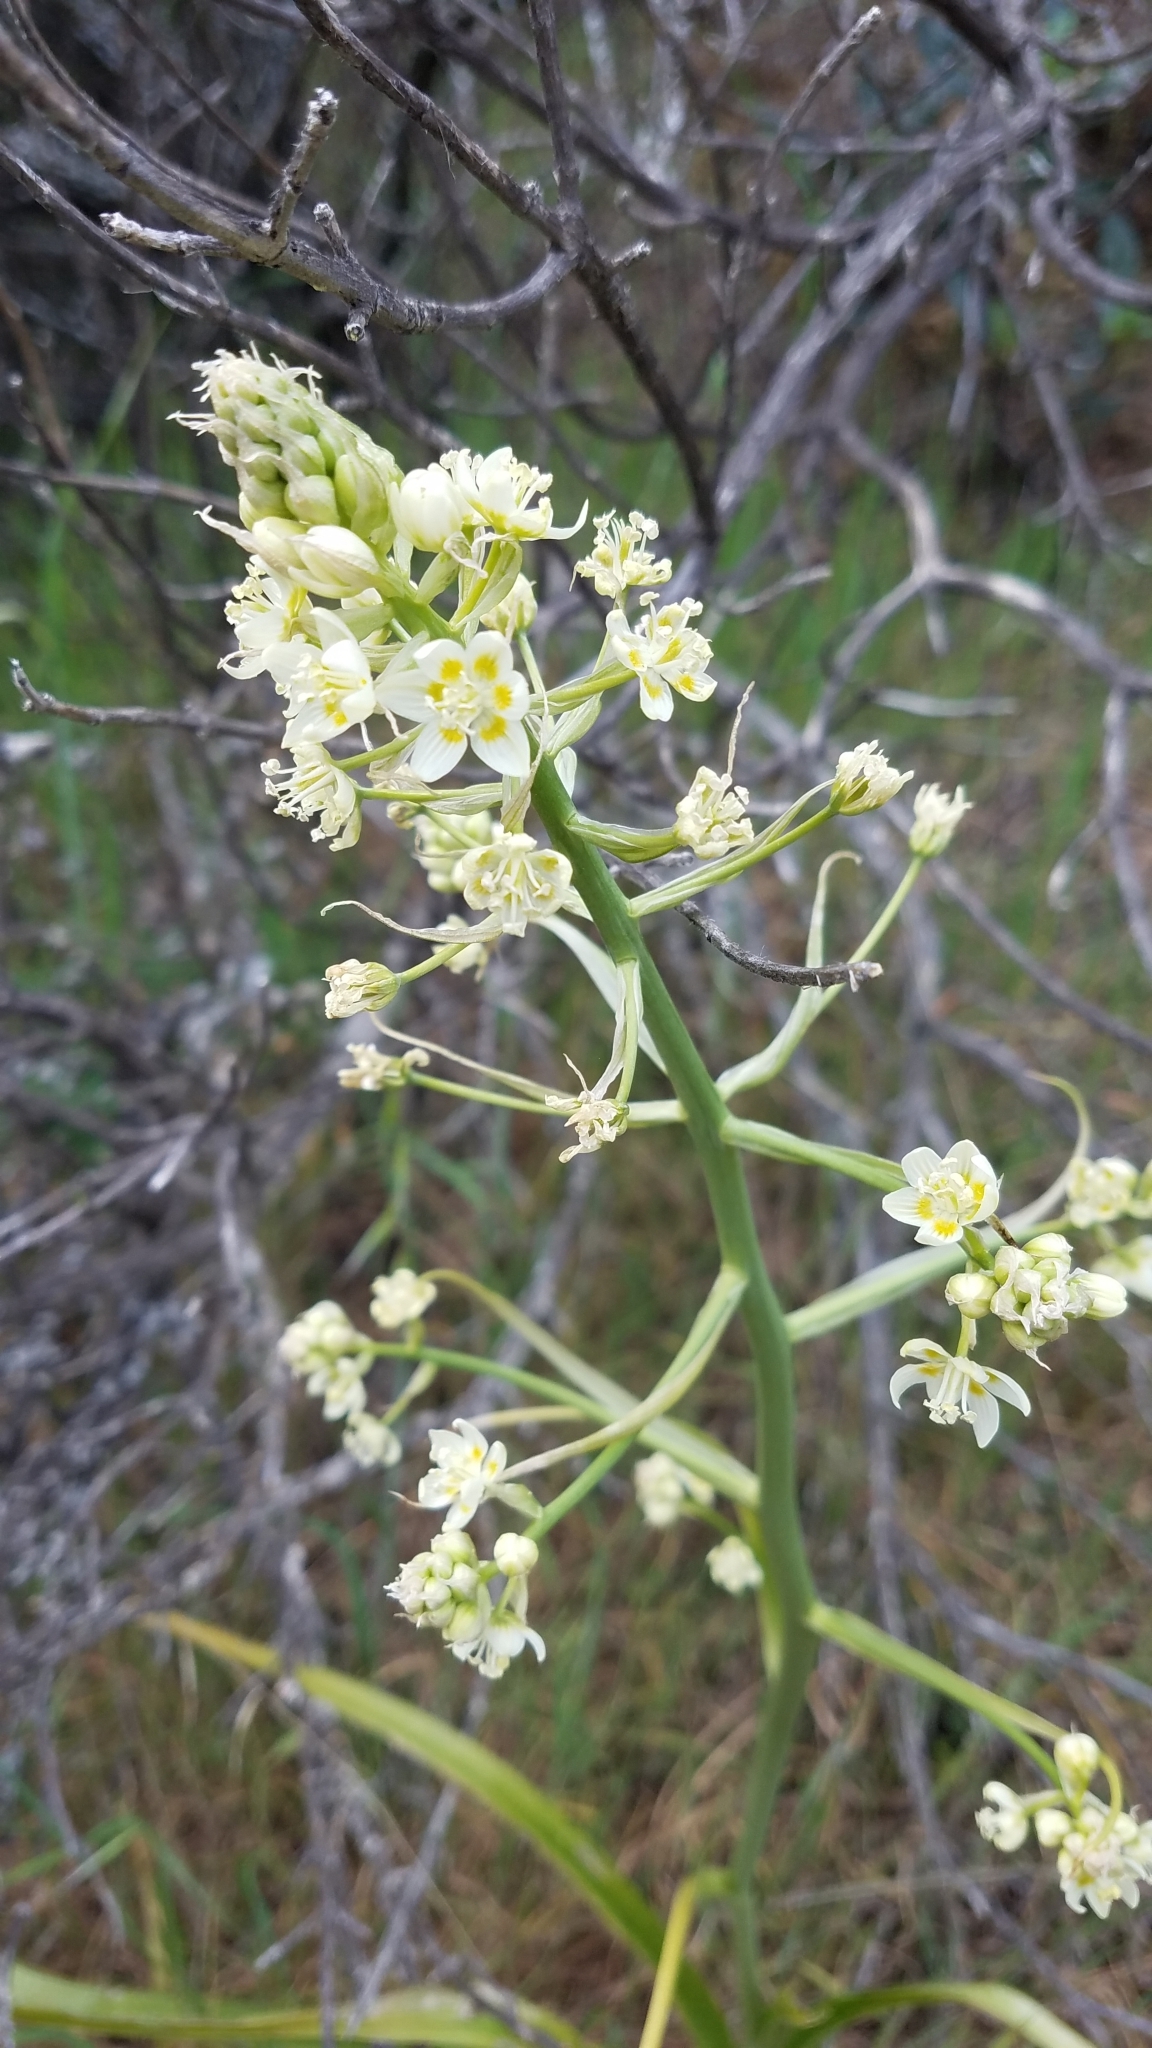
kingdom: Plantae
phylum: Tracheophyta
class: Liliopsida
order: Liliales
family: Melanthiaceae
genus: Toxicoscordion
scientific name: Toxicoscordion fremontii
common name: Fremont's death camas
